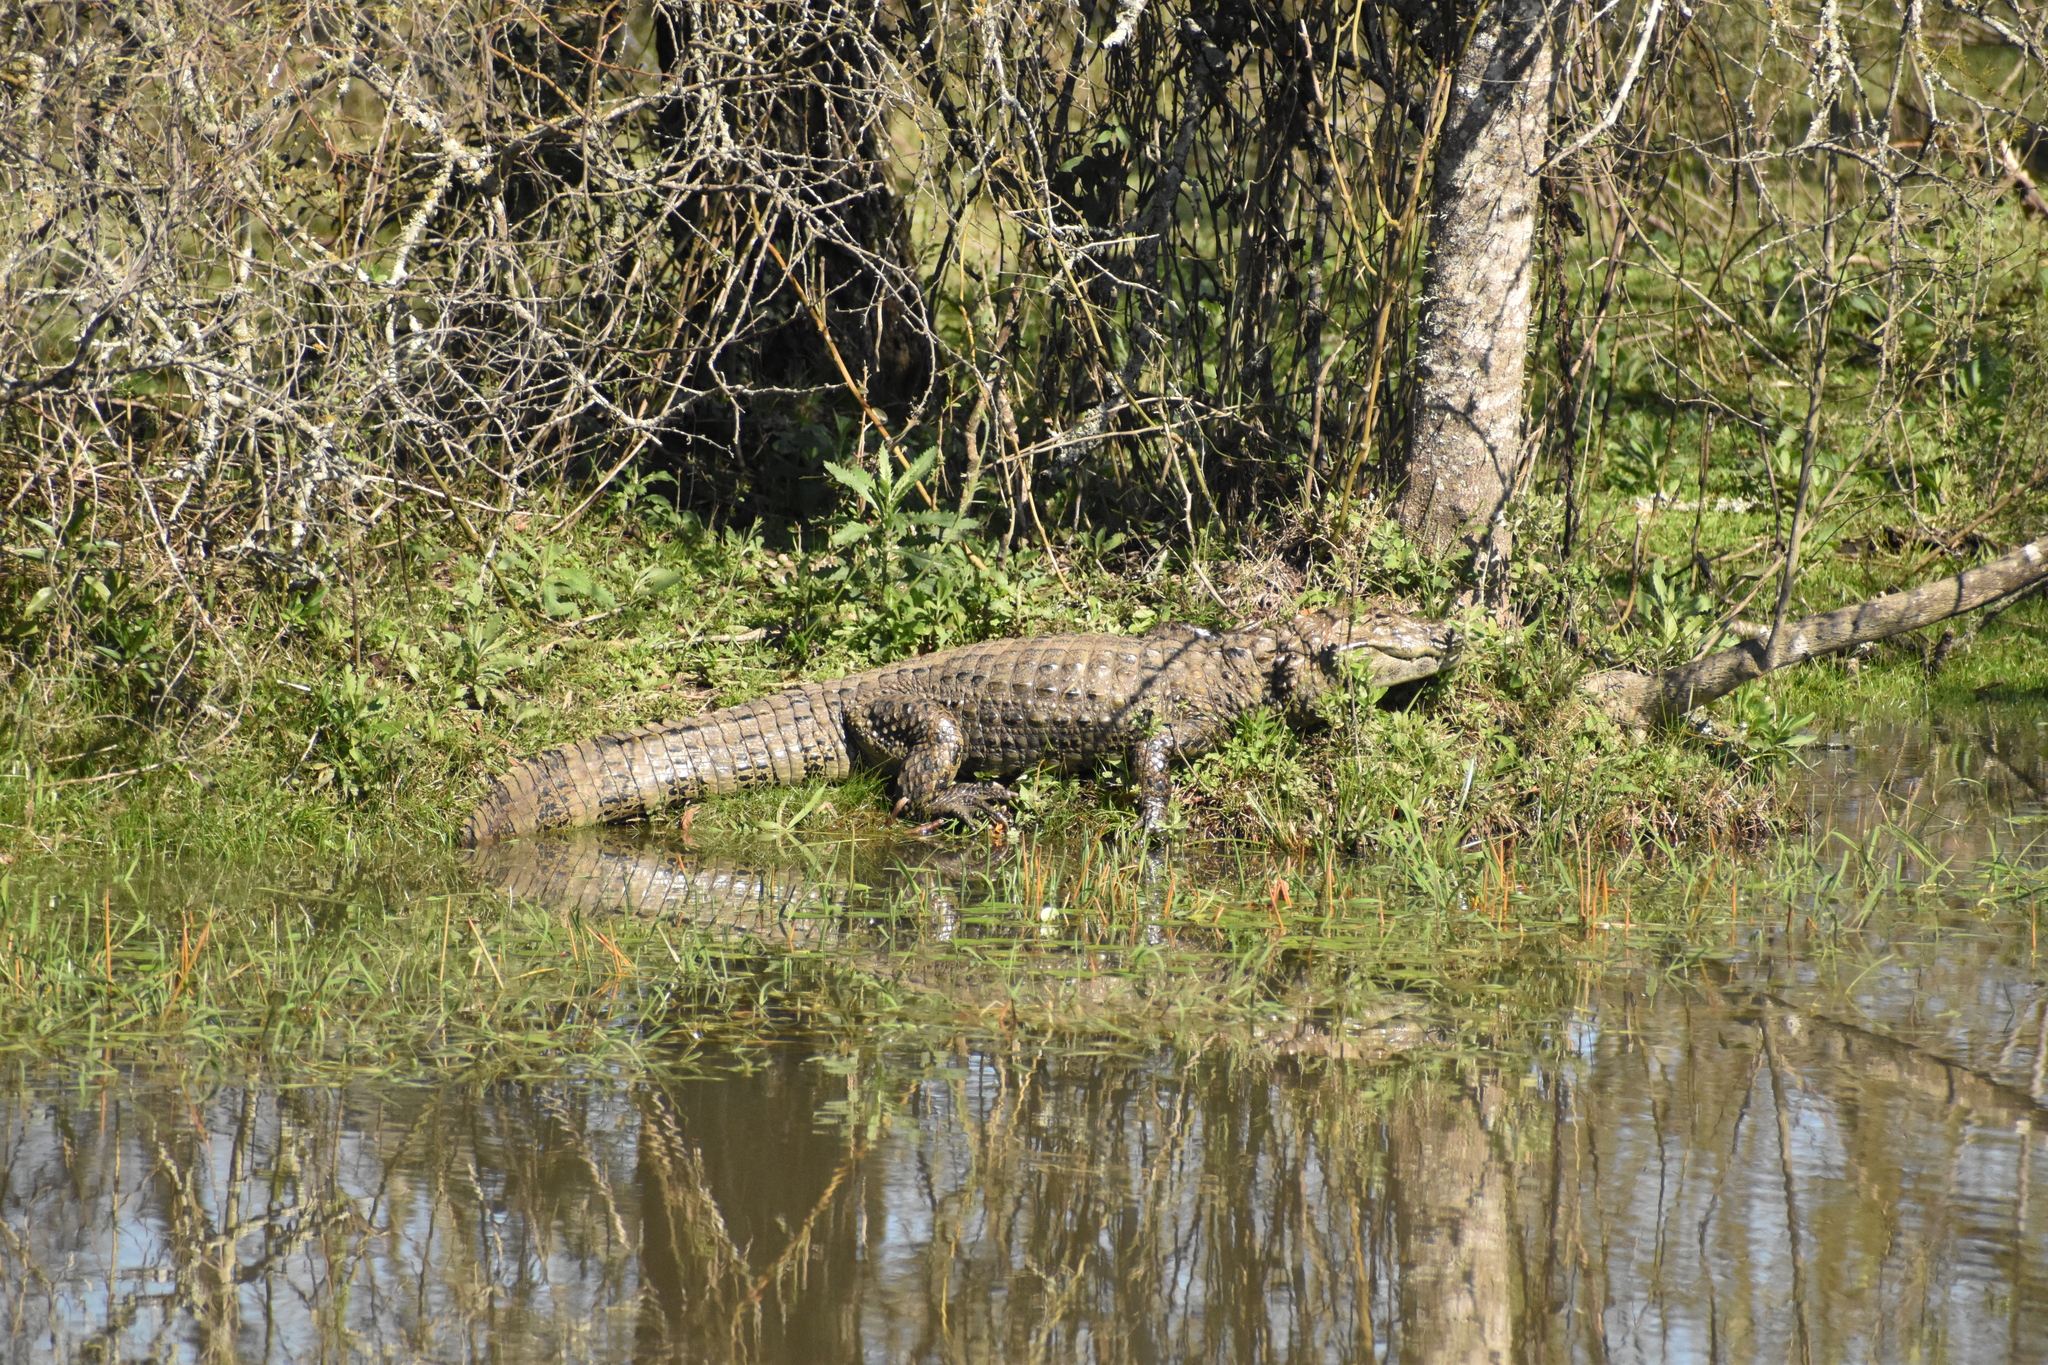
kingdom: Animalia
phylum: Chordata
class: Crocodylia
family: Alligatoridae
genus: Caiman
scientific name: Caiman latirostris
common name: Broad-snouted caiman
